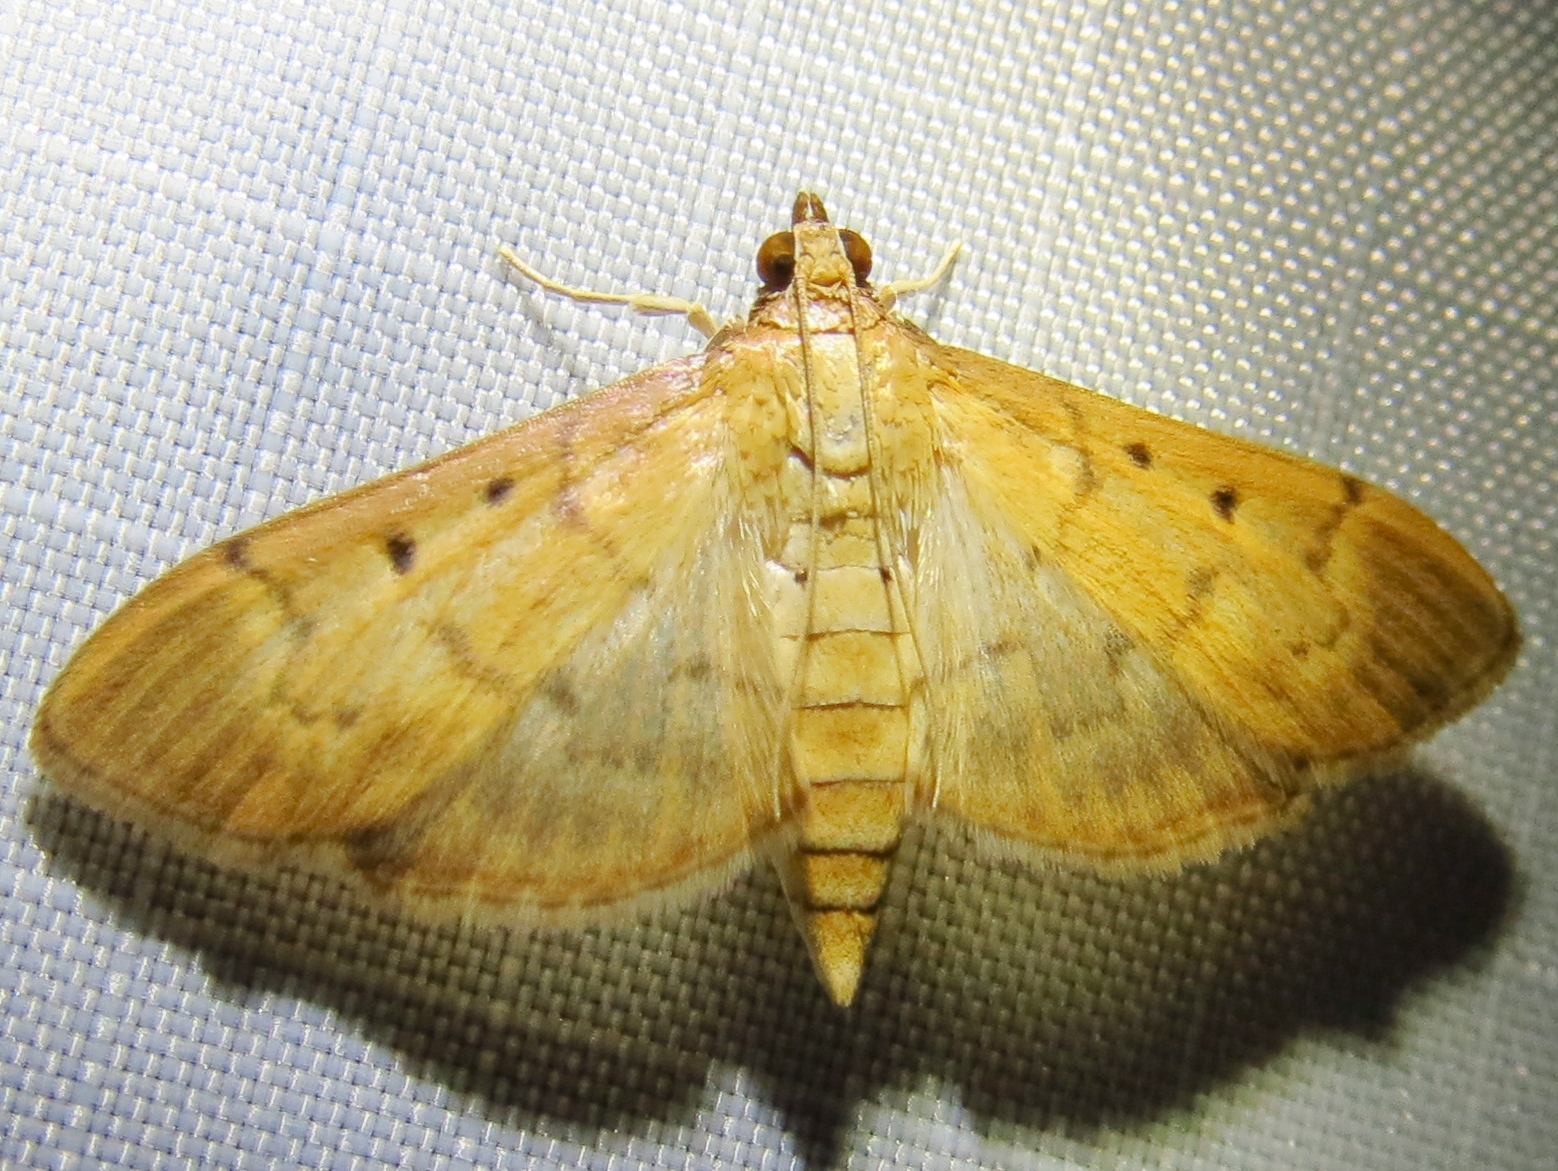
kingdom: Animalia
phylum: Arthropoda
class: Insecta
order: Lepidoptera
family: Crambidae
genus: Herpetogramma
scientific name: Herpetogramma bipunctalis
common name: Southern beet webworm
